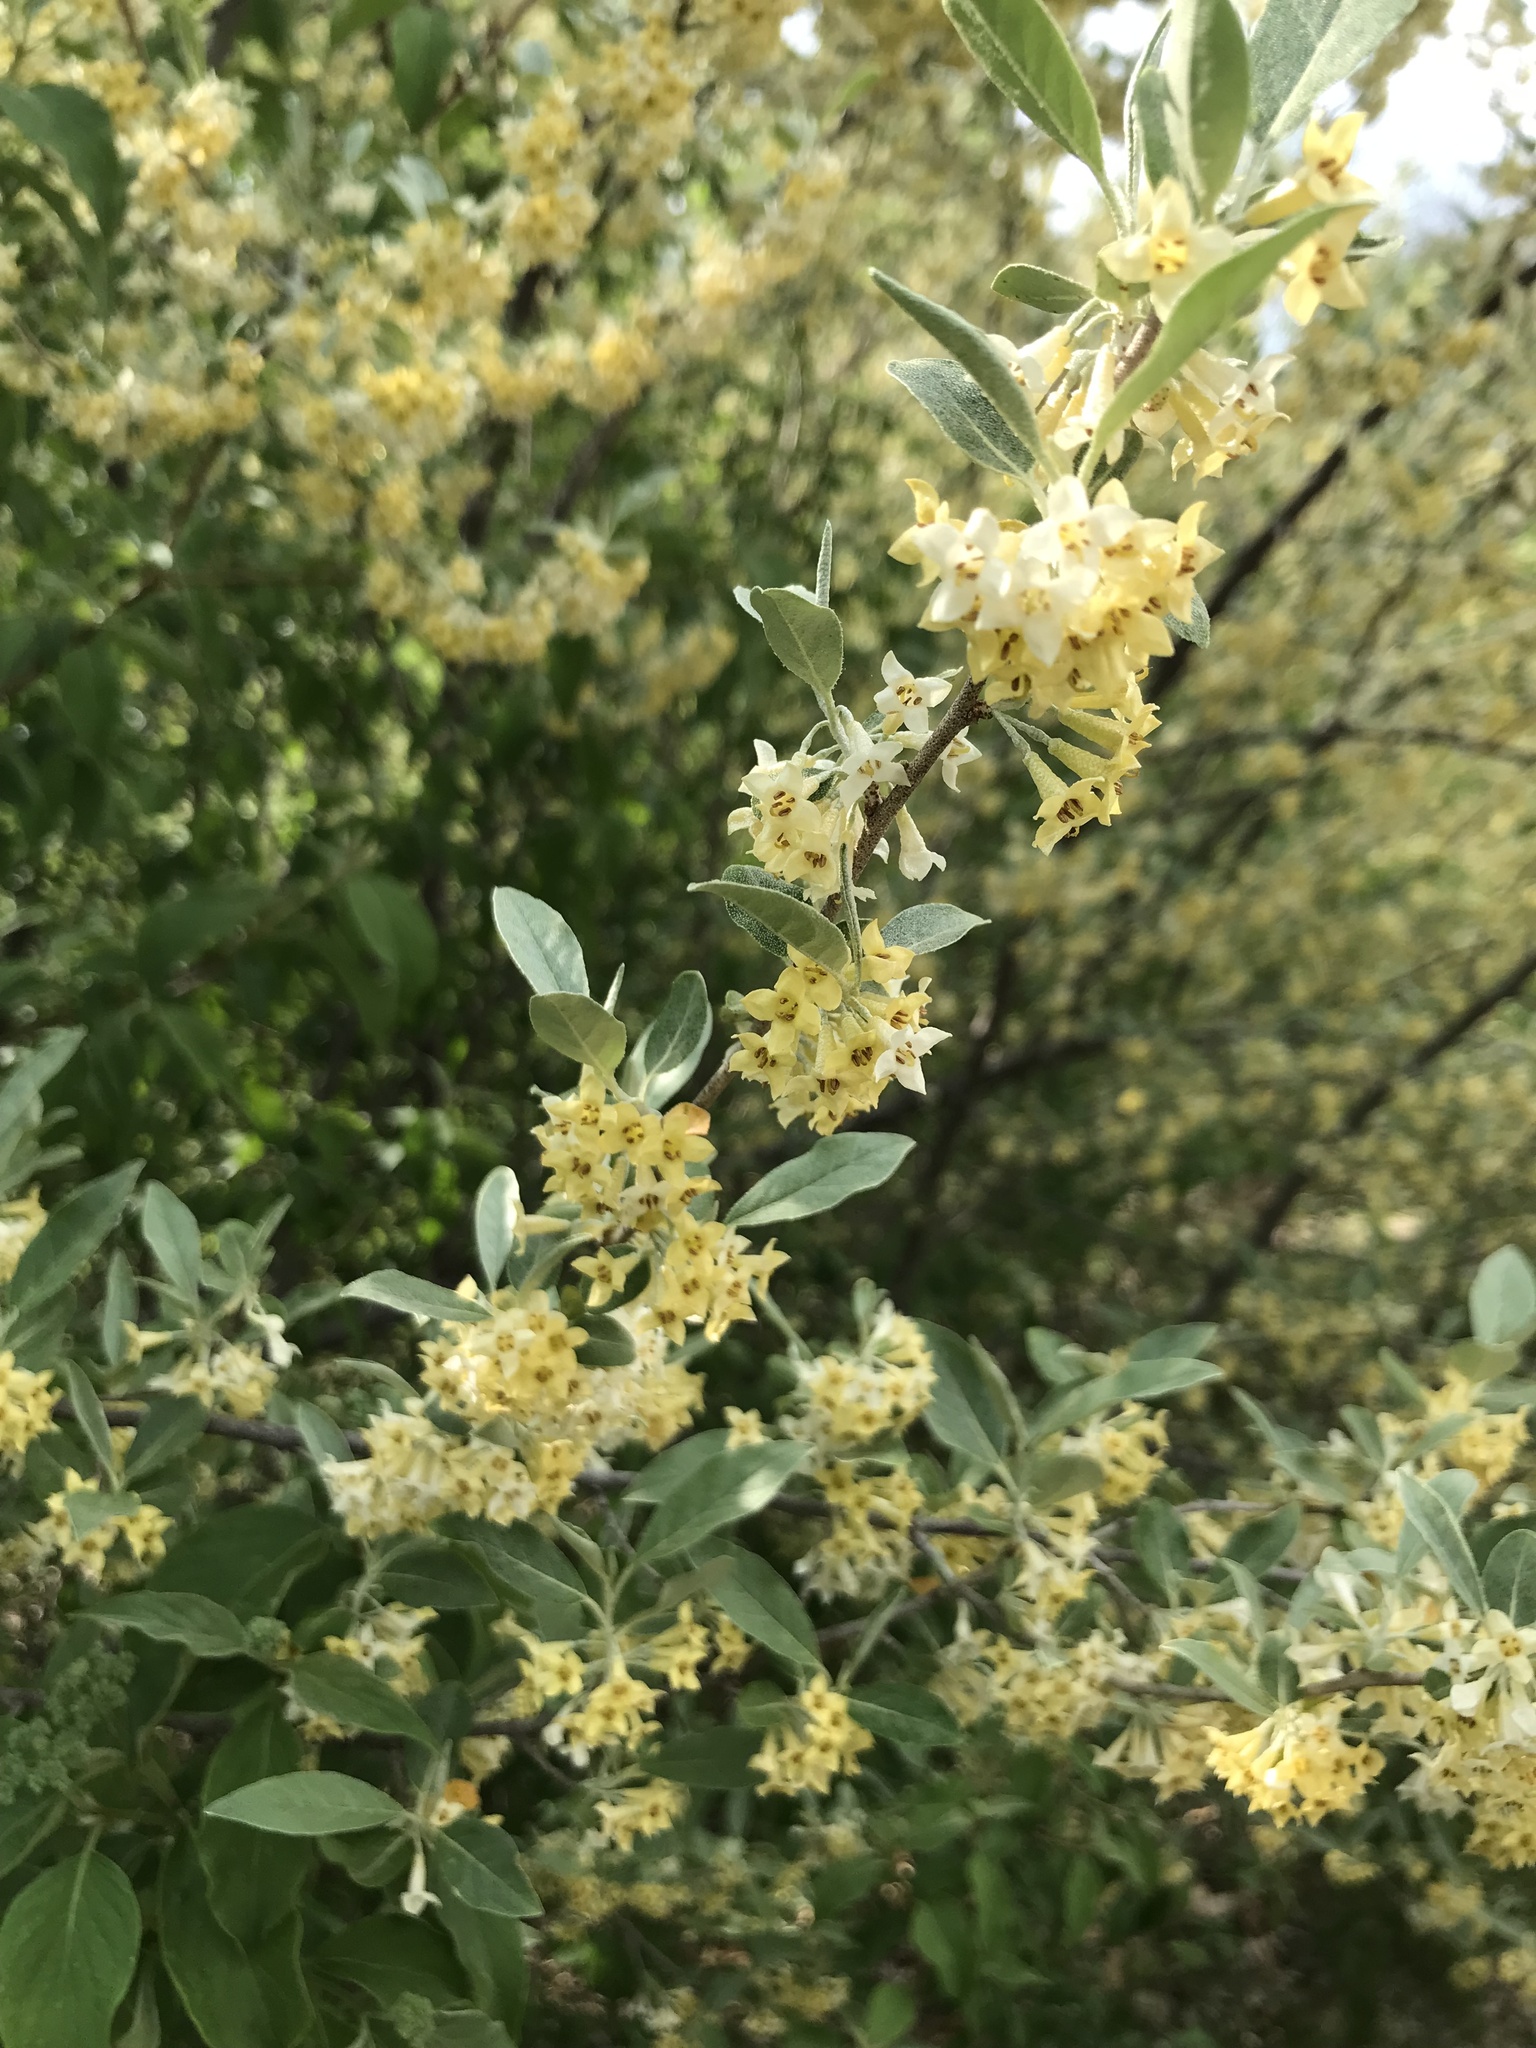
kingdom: Plantae
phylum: Tracheophyta
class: Magnoliopsida
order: Rosales
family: Elaeagnaceae
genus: Elaeagnus
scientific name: Elaeagnus umbellata
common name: Autumn olive
